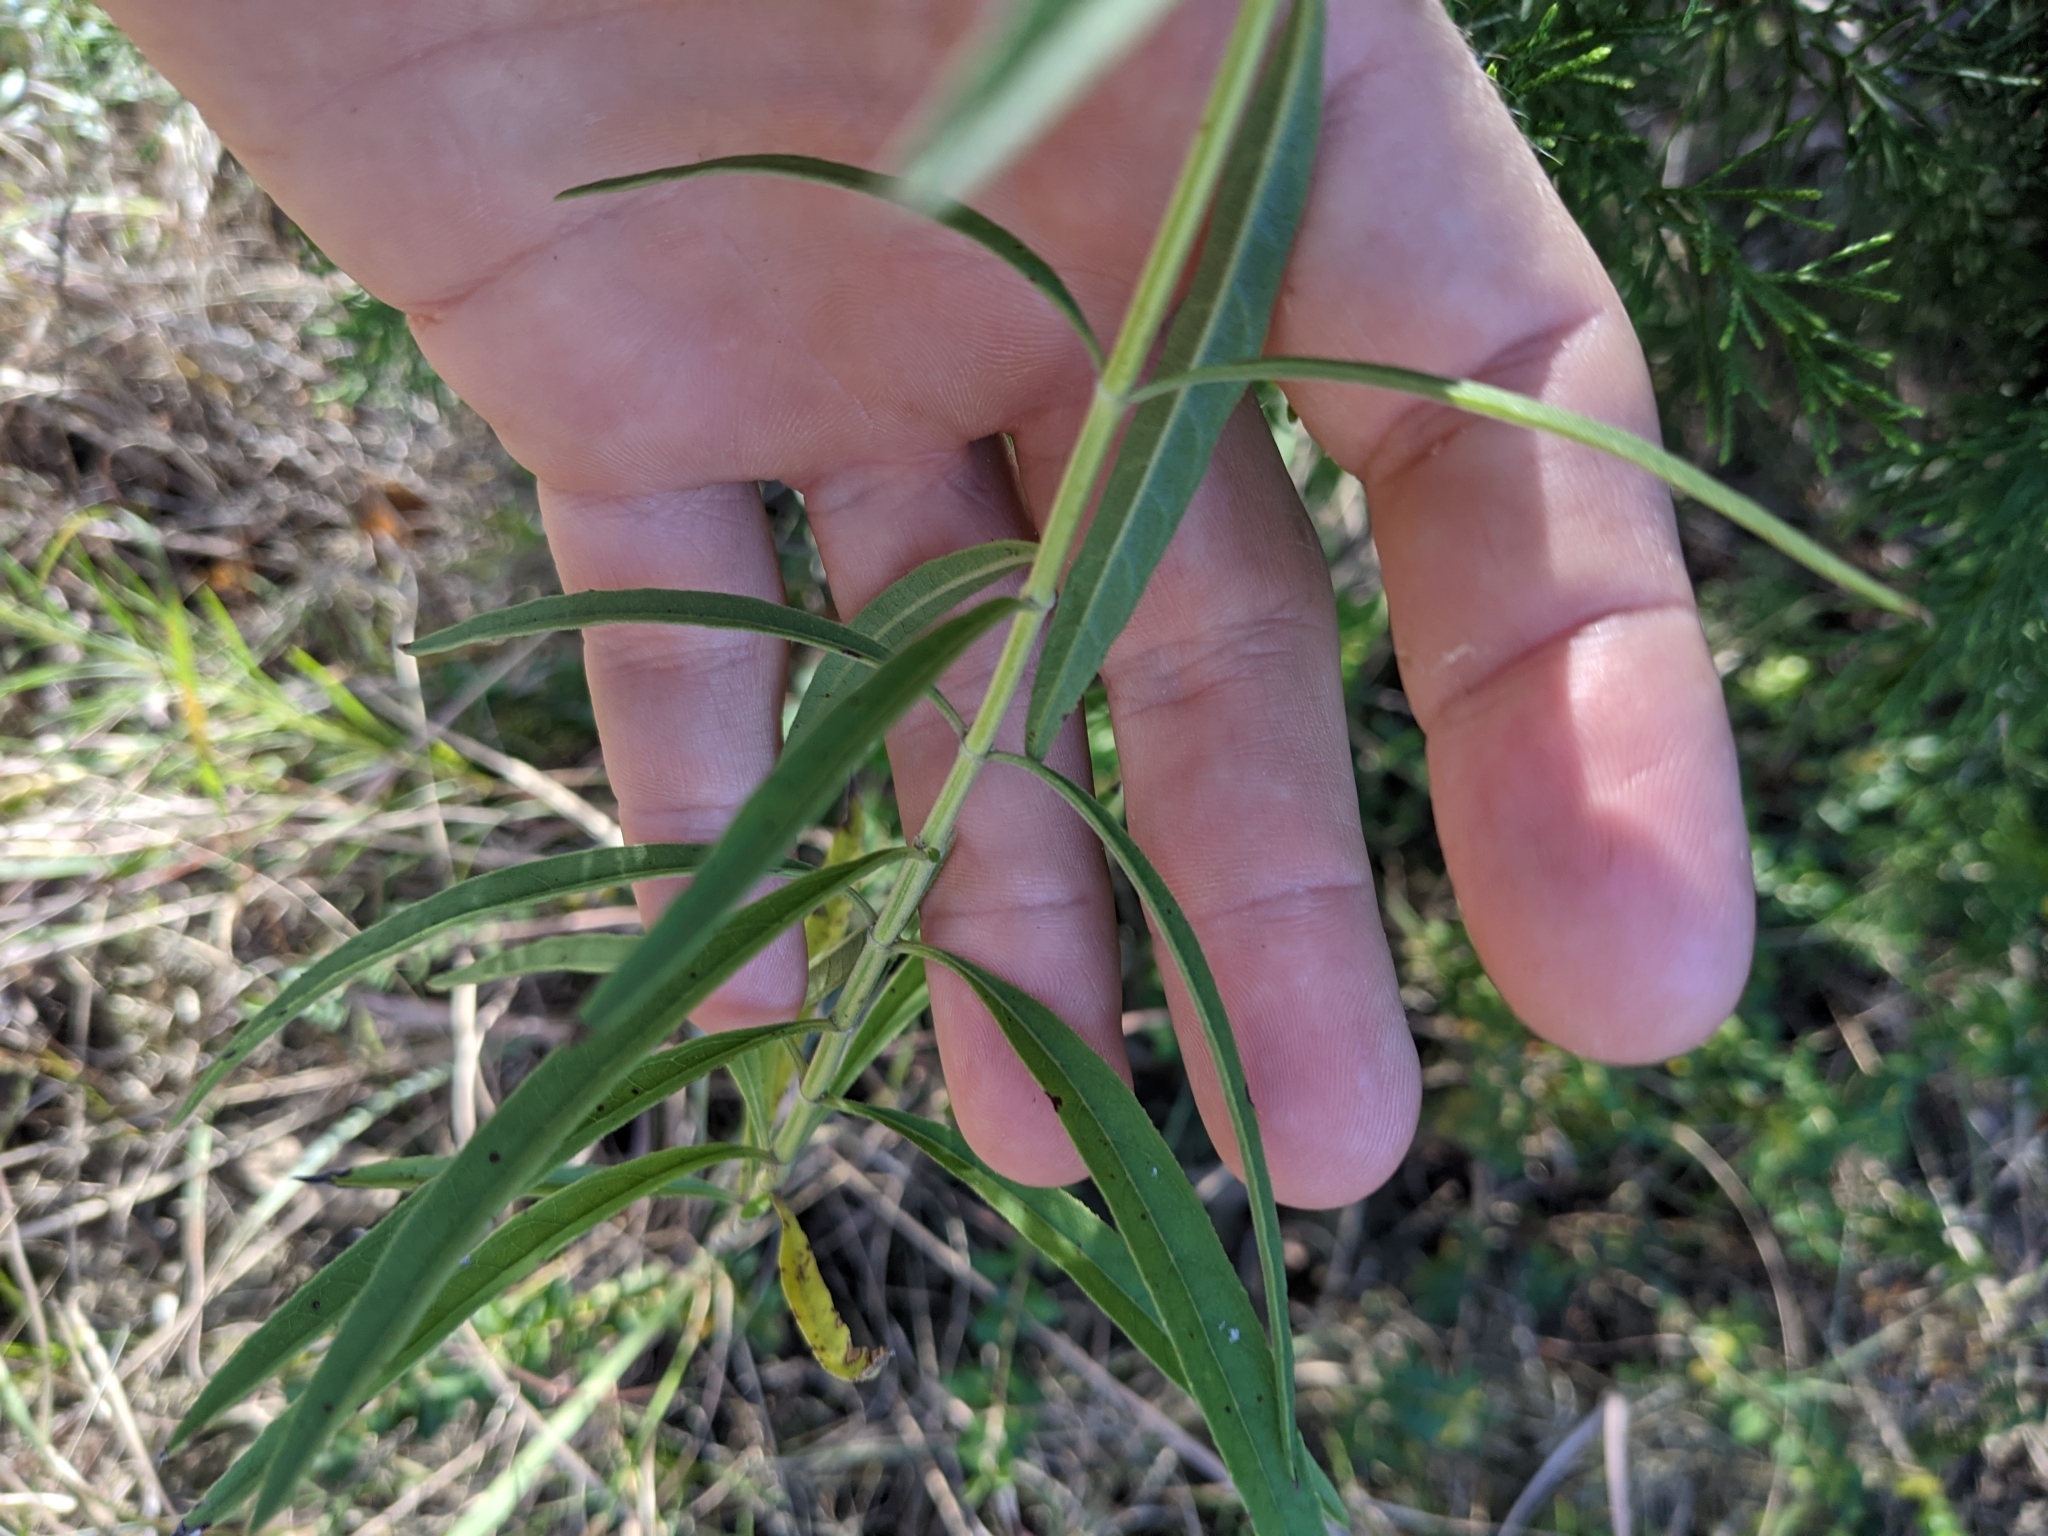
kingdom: Plantae
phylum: Tracheophyta
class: Magnoliopsida
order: Lamiales
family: Lamiaceae
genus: Salvia
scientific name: Salvia azurea
